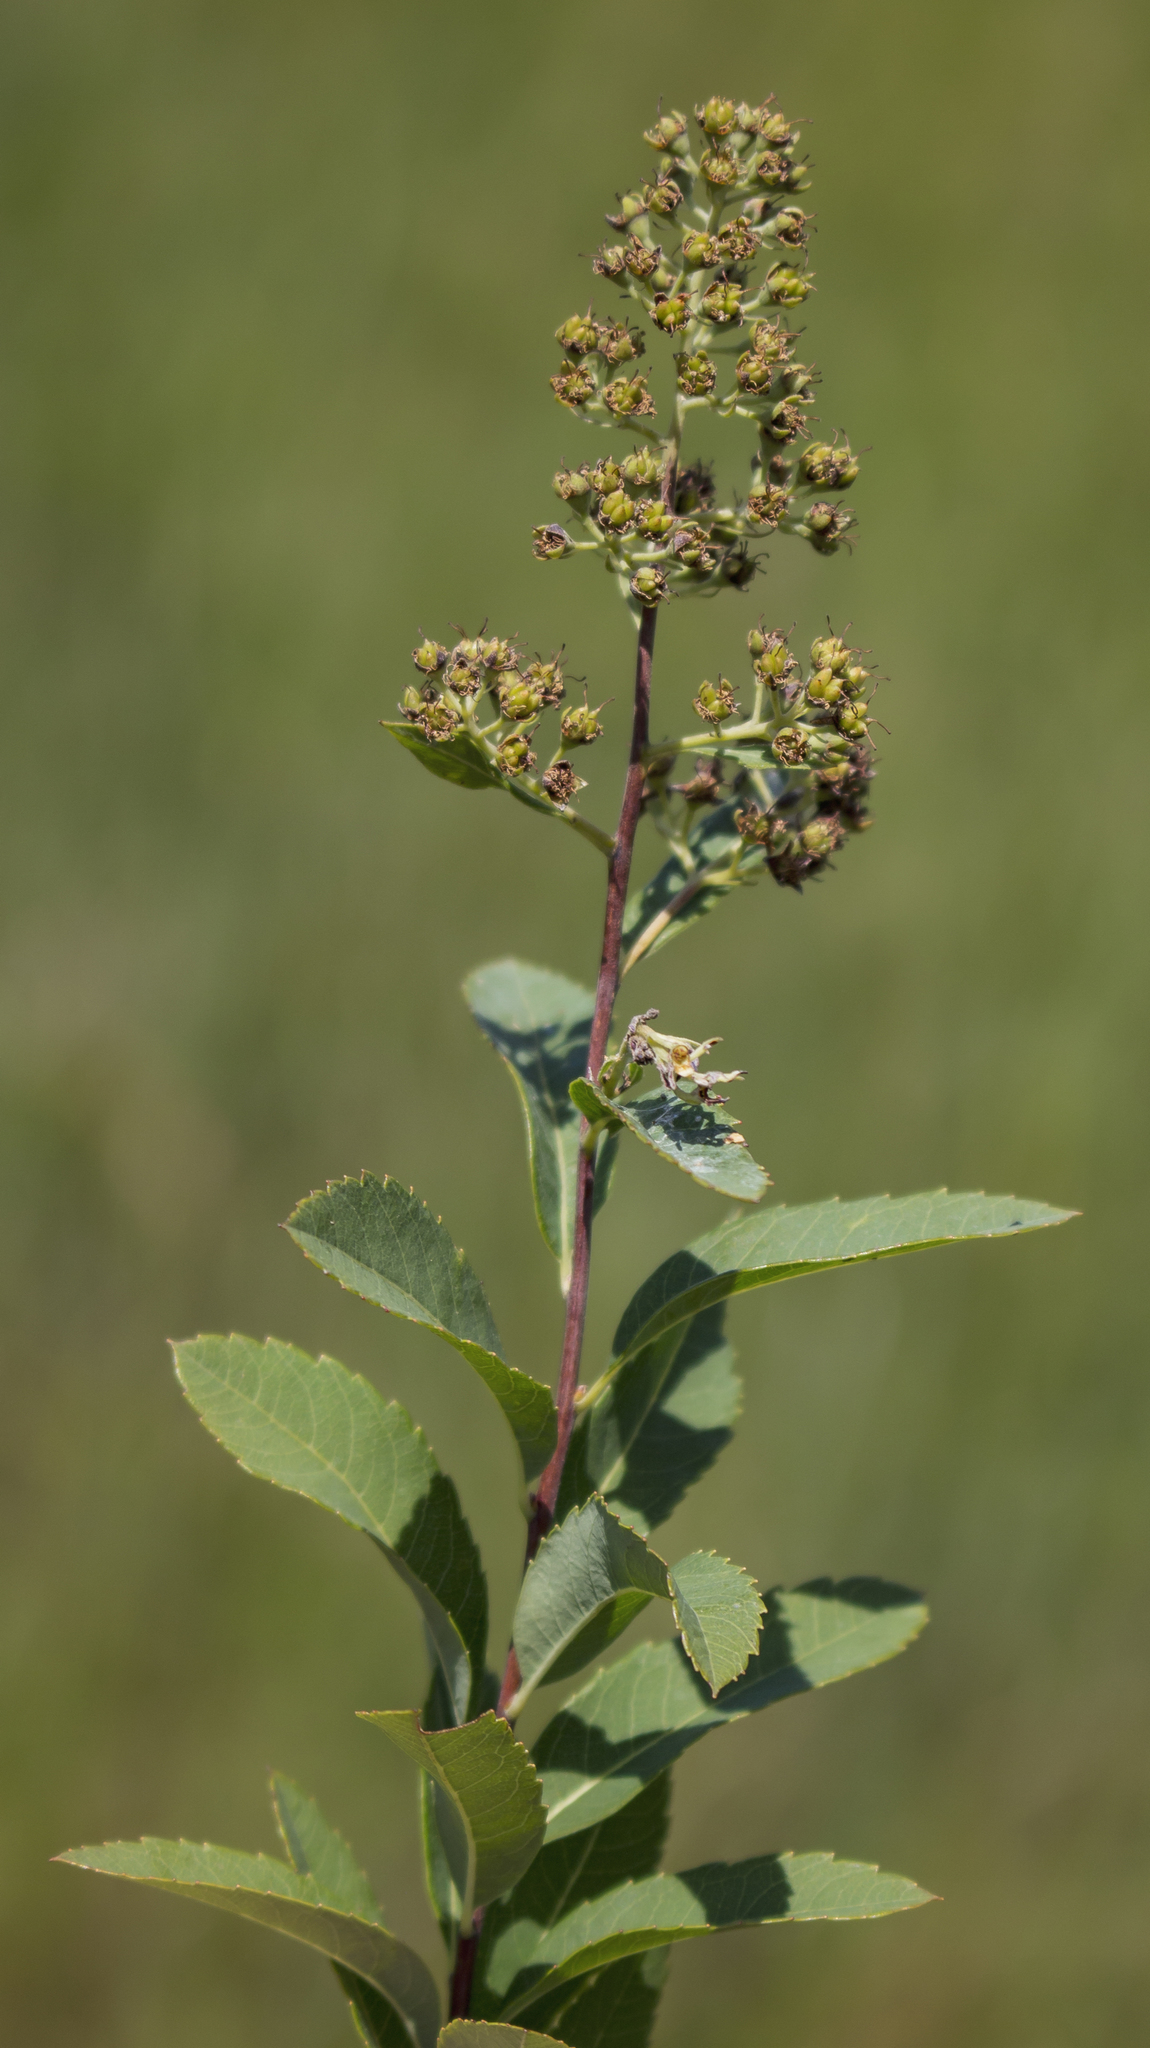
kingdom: Plantae
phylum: Tracheophyta
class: Magnoliopsida
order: Rosales
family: Rosaceae
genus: Spiraea
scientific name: Spiraea alba
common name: Pale bridewort
